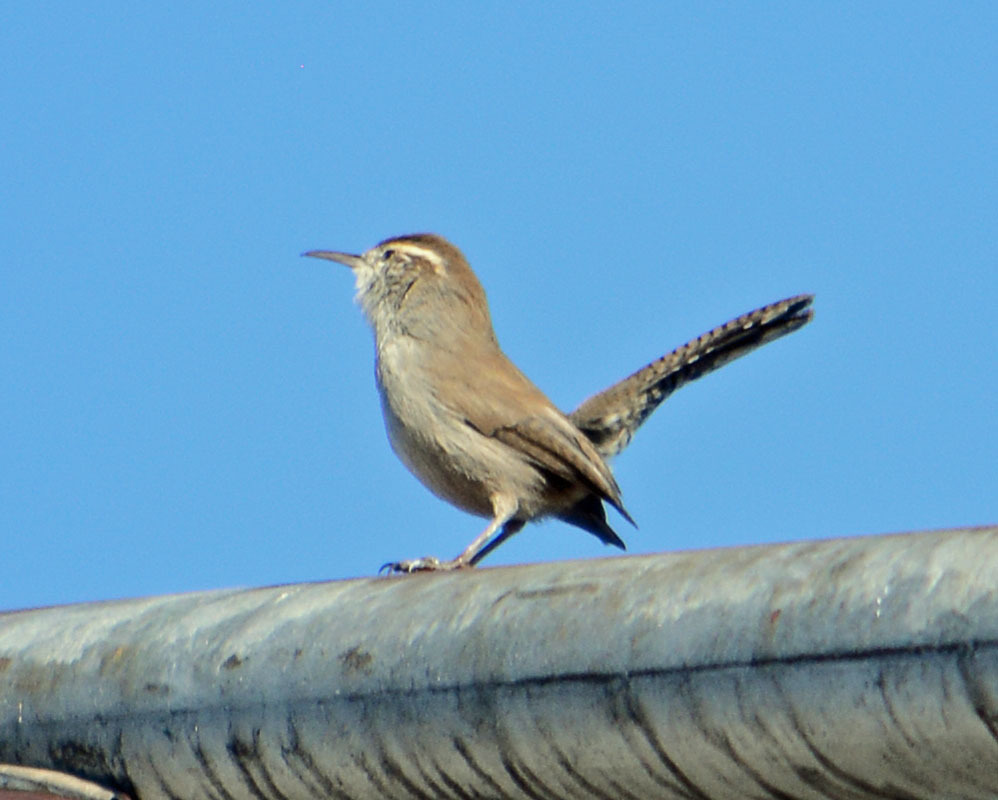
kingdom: Animalia
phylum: Chordata
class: Aves
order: Passeriformes
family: Troglodytidae
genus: Thryomanes
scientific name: Thryomanes bewickii
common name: Bewick's wren
